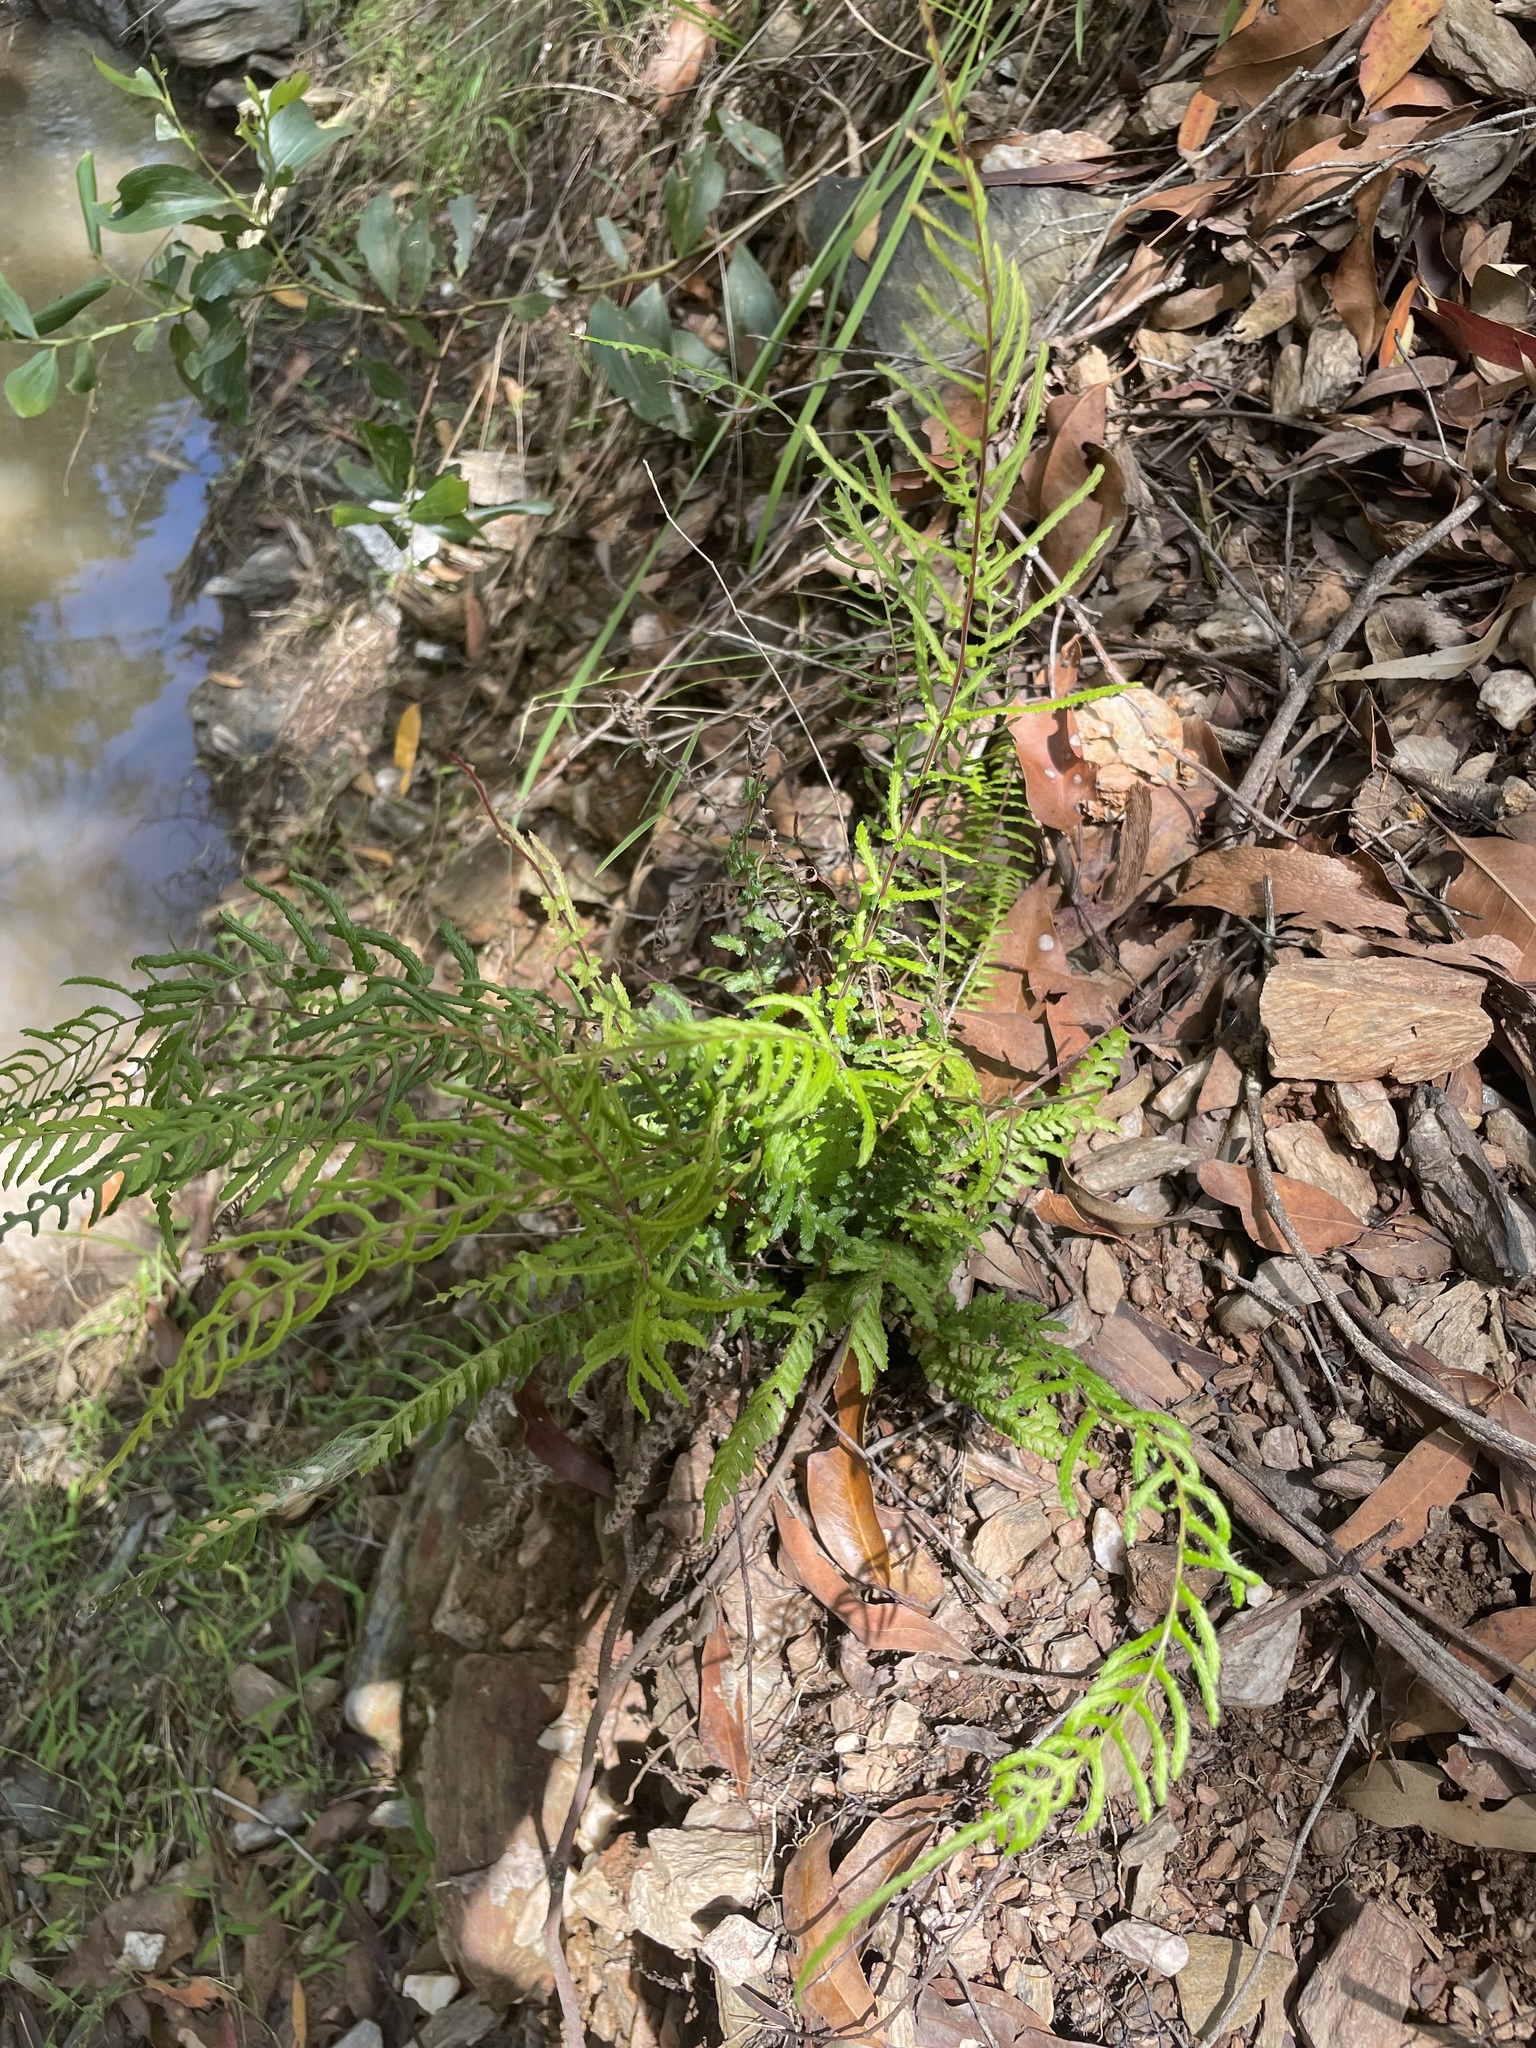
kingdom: Plantae
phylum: Tracheophyta
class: Polypodiopsida
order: Polypodiales
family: Blechnaceae
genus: Doodia
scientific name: Doodia caudata
